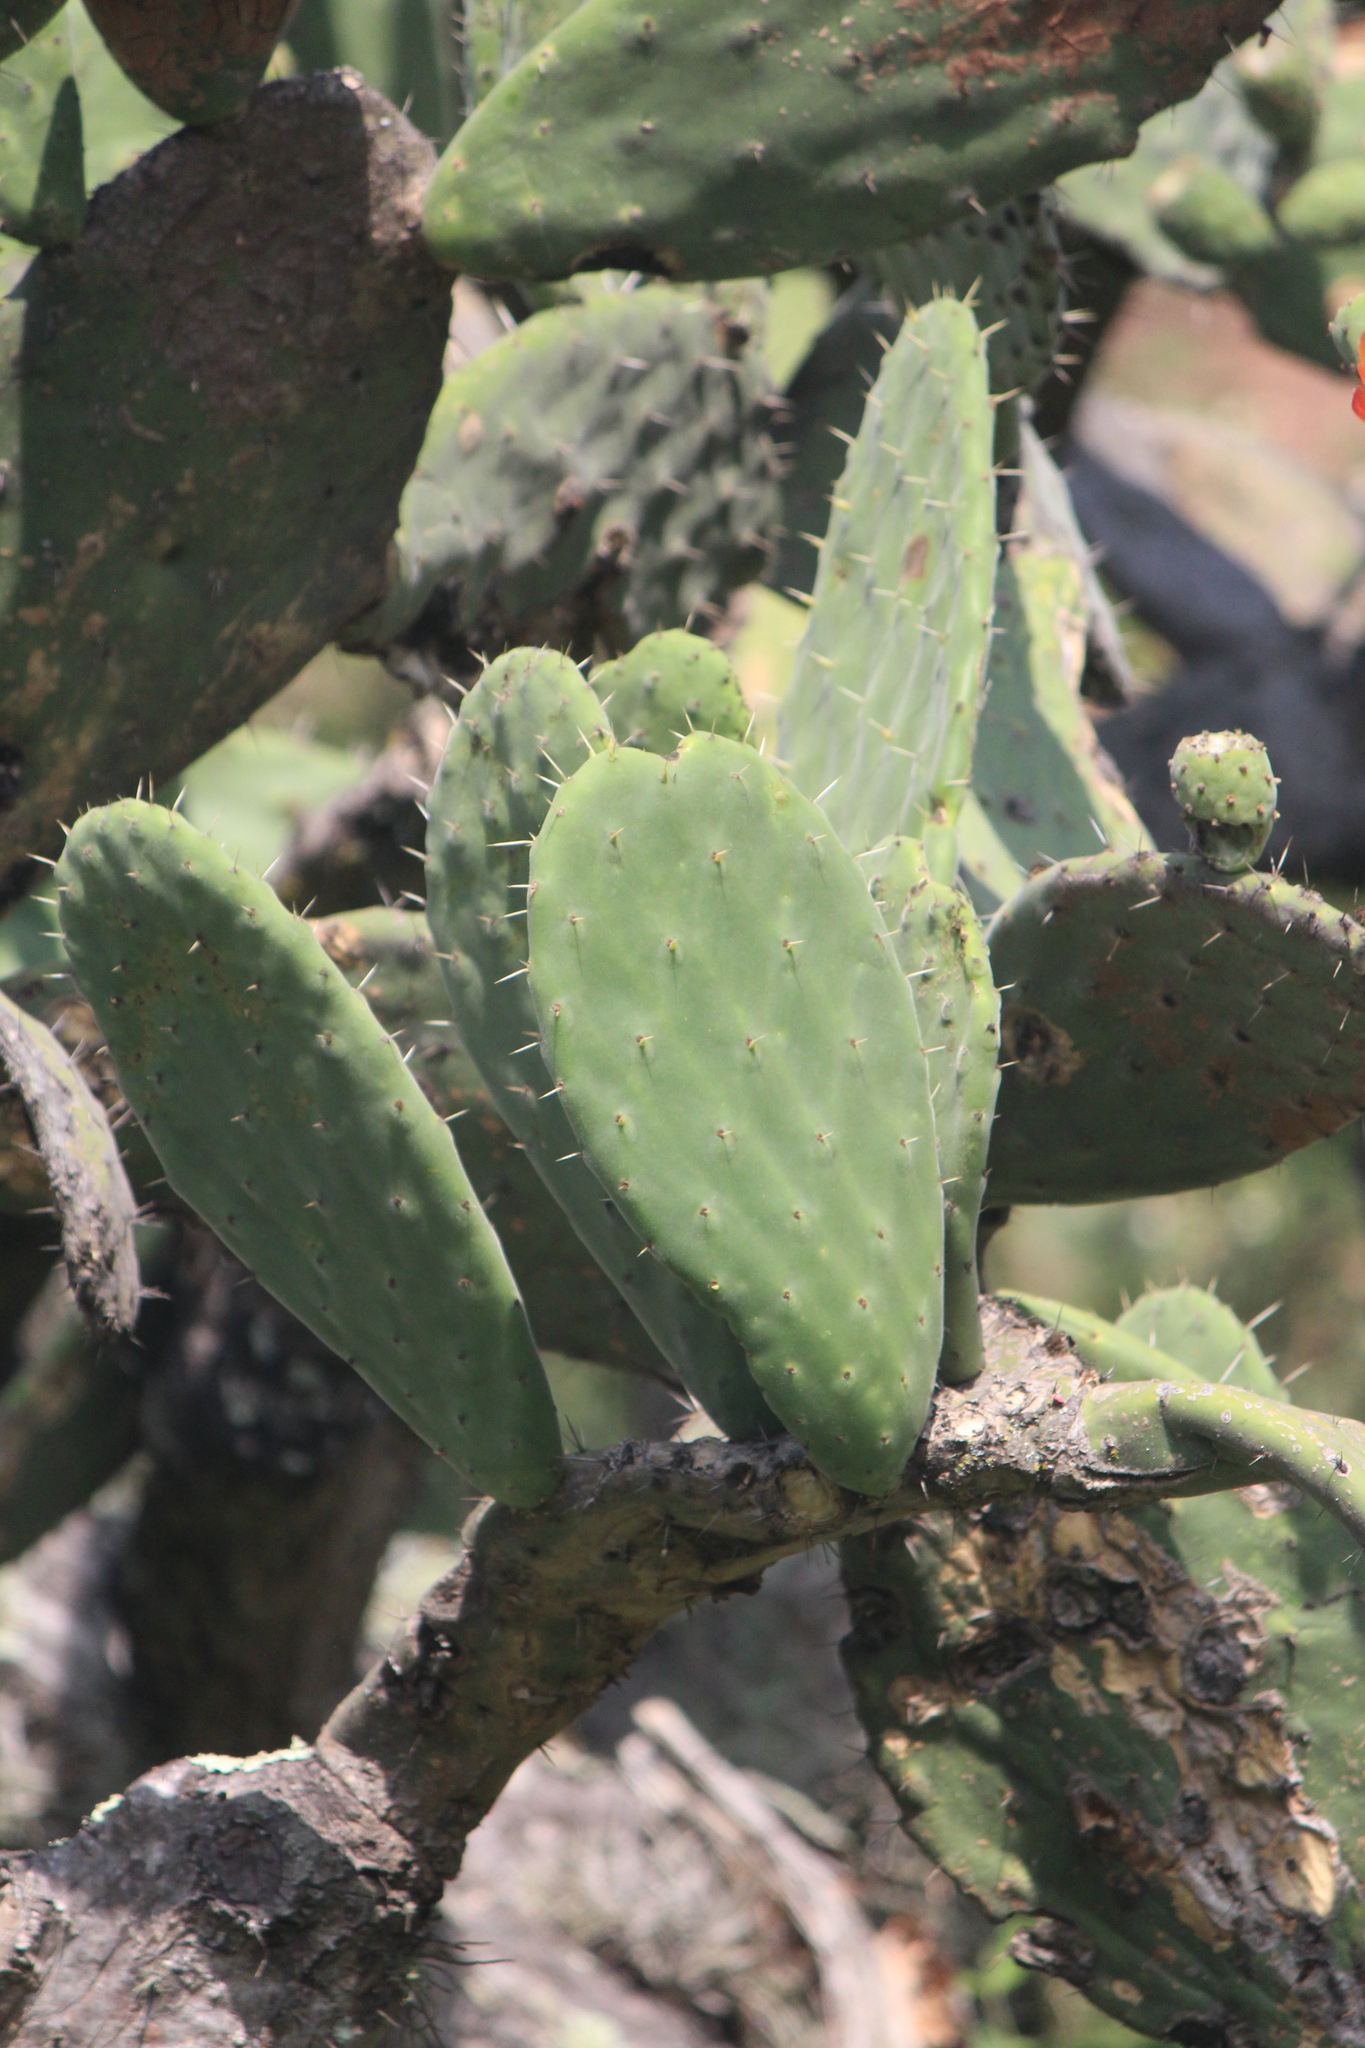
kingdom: Plantae
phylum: Tracheophyta
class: Magnoliopsida
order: Caryophyllales
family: Cactaceae
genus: Opuntia
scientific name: Opuntia tomentosa
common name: Woollyjoint pricklypear
